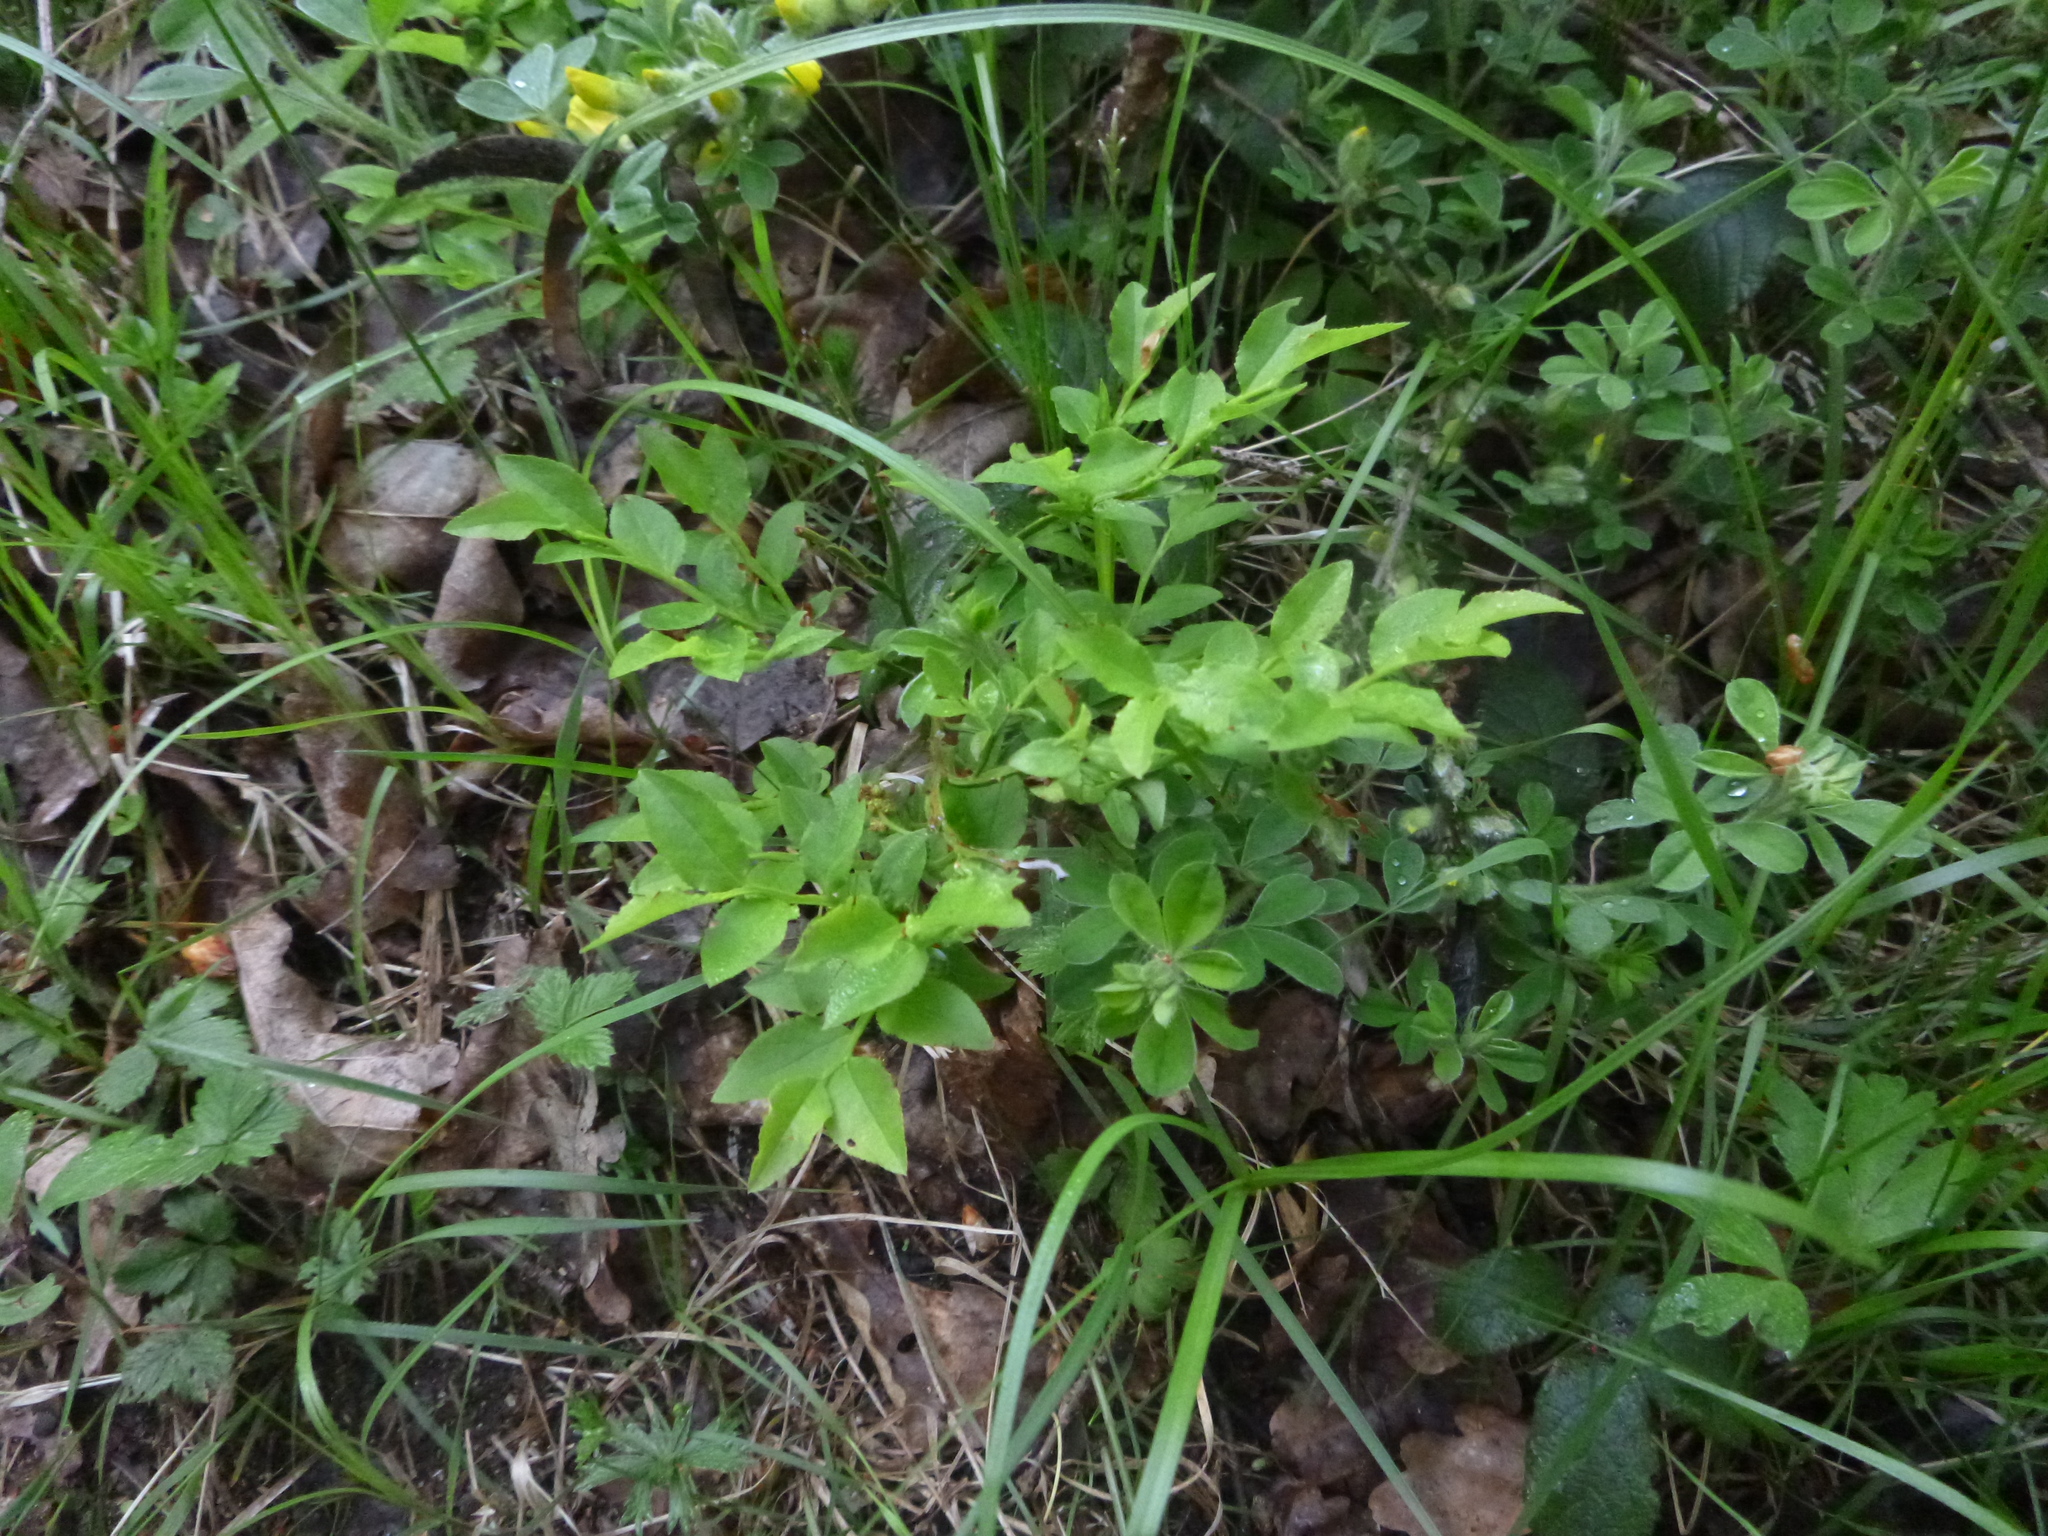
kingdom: Plantae
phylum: Tracheophyta
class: Magnoliopsida
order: Ericales
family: Ericaceae
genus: Vaccinium
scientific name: Vaccinium myrtillus
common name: Bilberry
